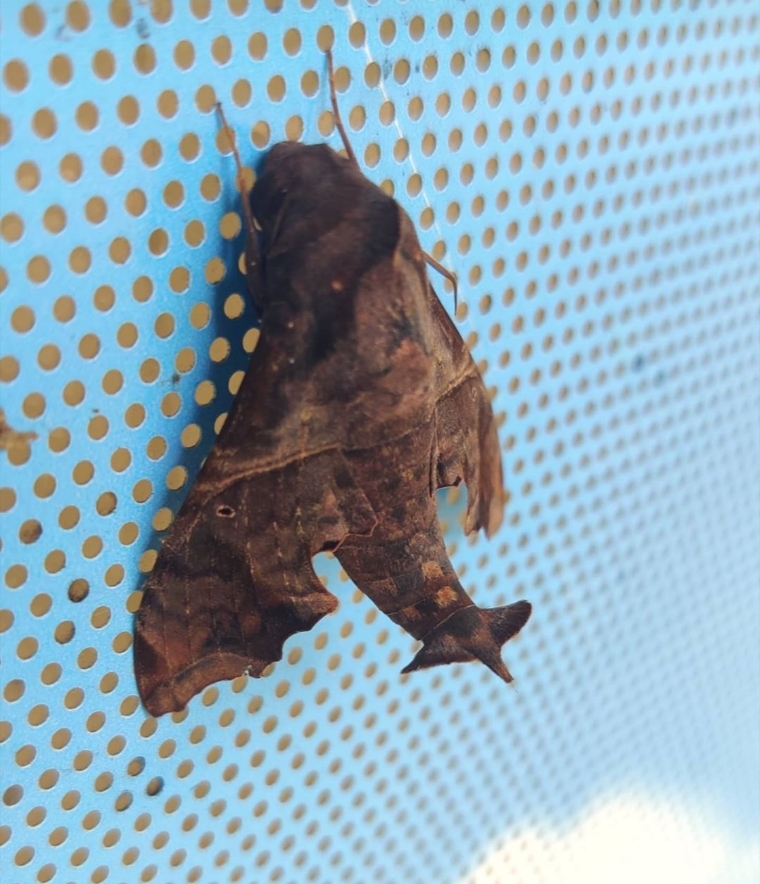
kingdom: Animalia
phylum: Arthropoda
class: Insecta
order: Lepidoptera
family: Sphingidae
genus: Enyo
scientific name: Enyo lugubris
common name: Mournful sphinx
